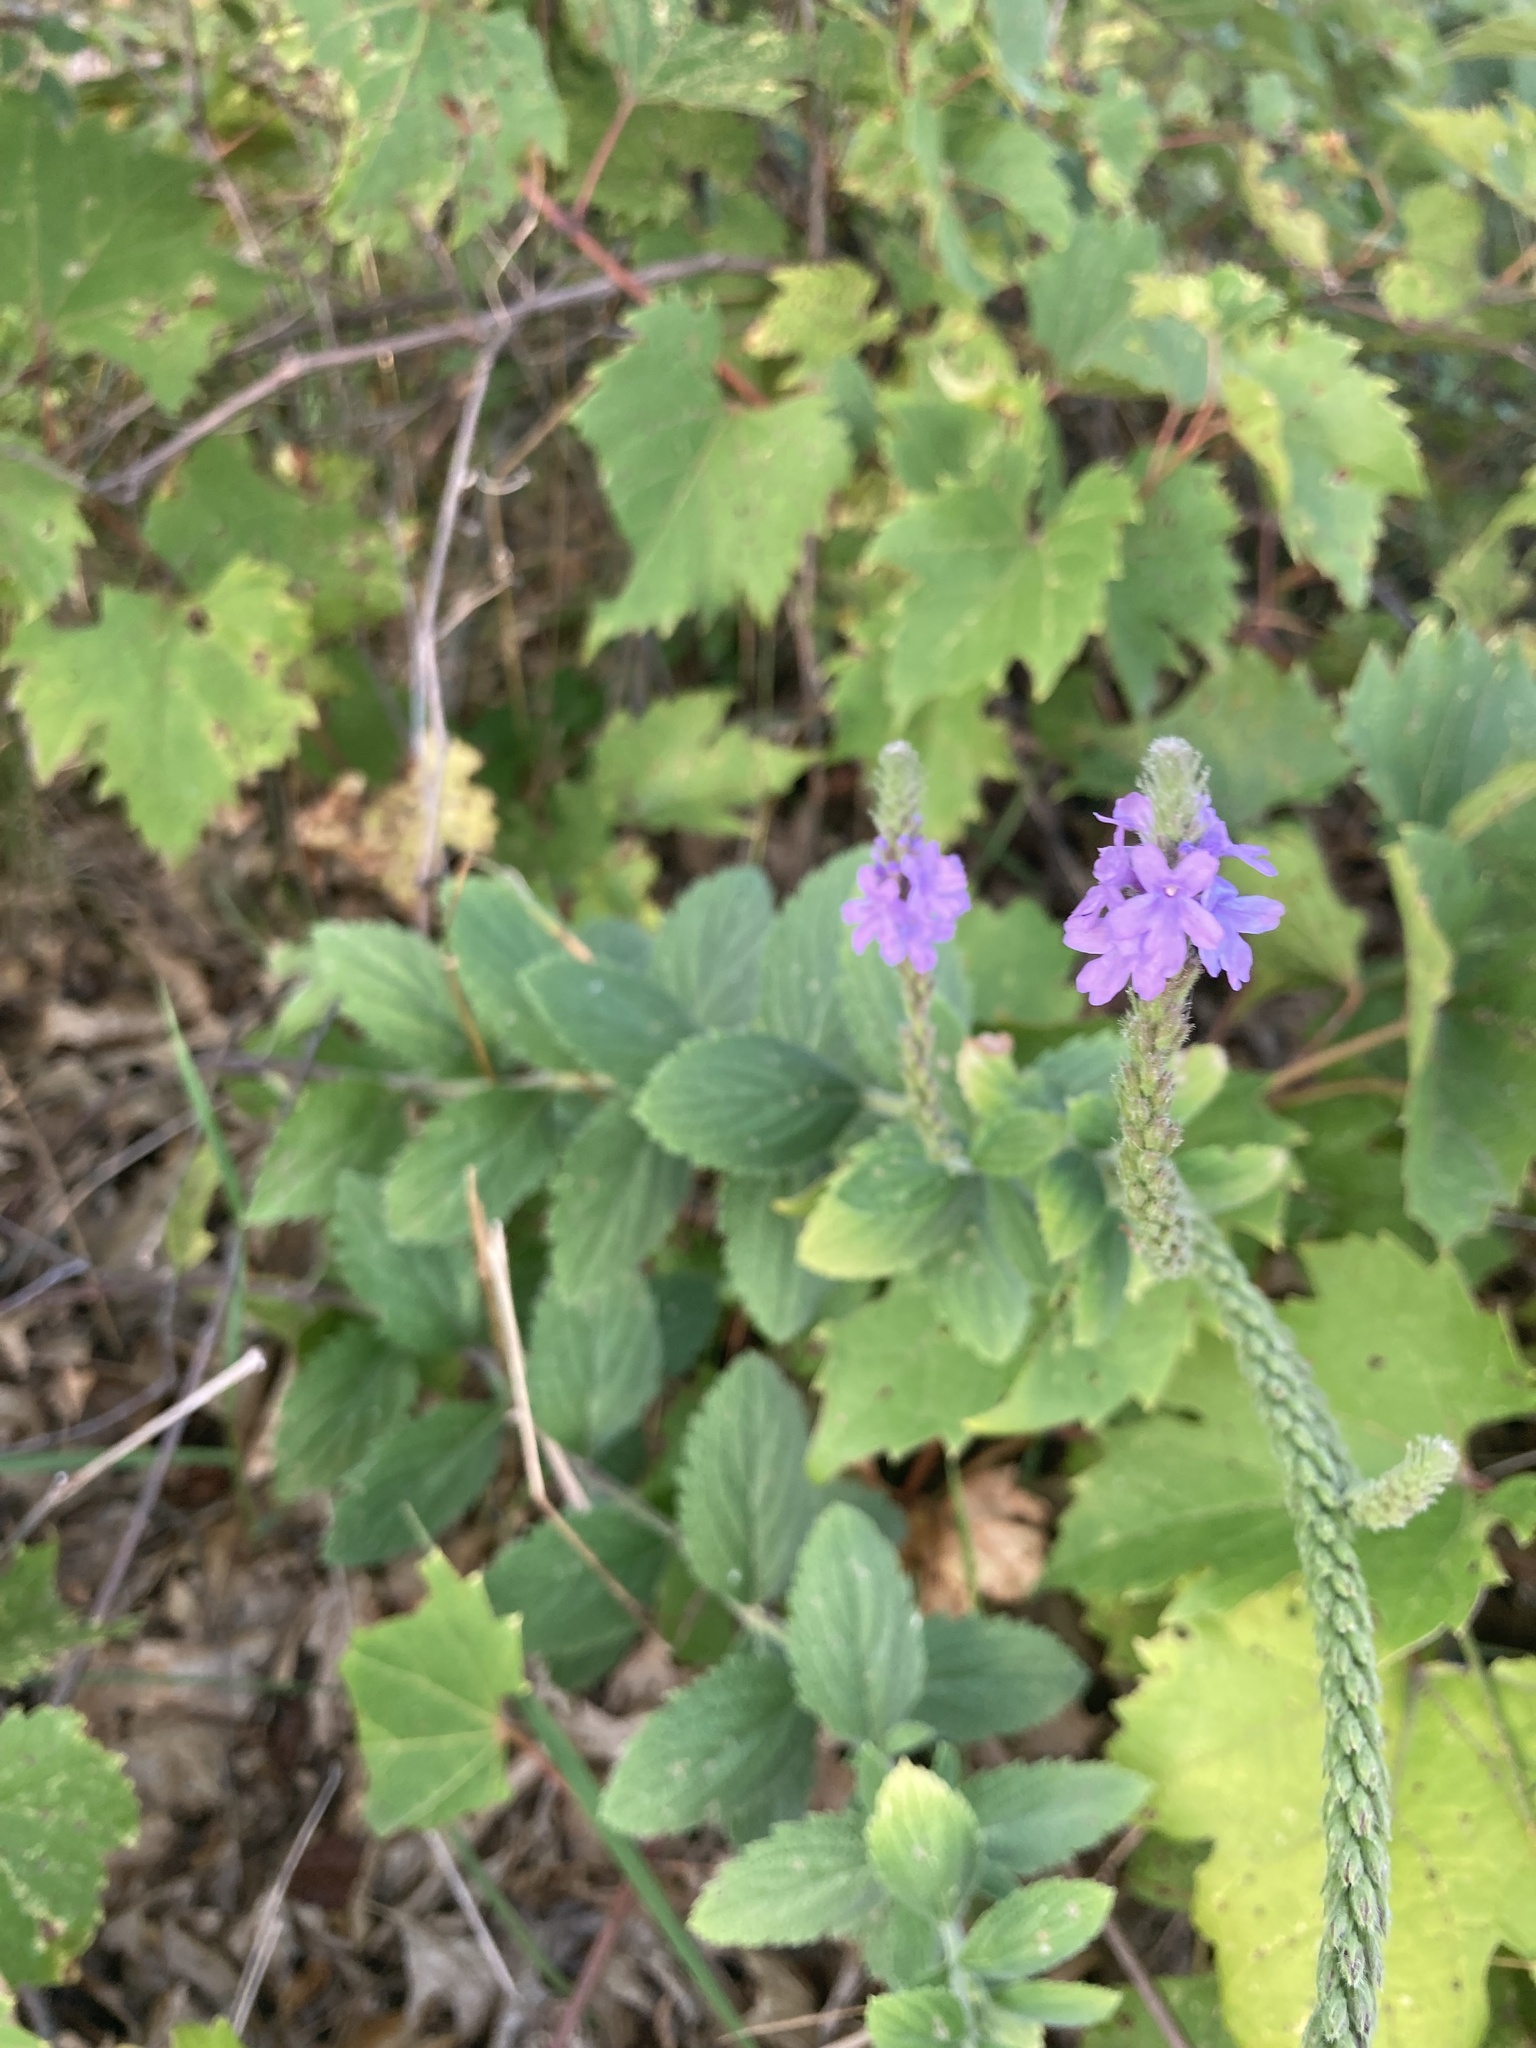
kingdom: Plantae
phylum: Tracheophyta
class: Magnoliopsida
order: Lamiales
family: Verbenaceae
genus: Verbena
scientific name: Verbena stricta
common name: Hoary vervain
